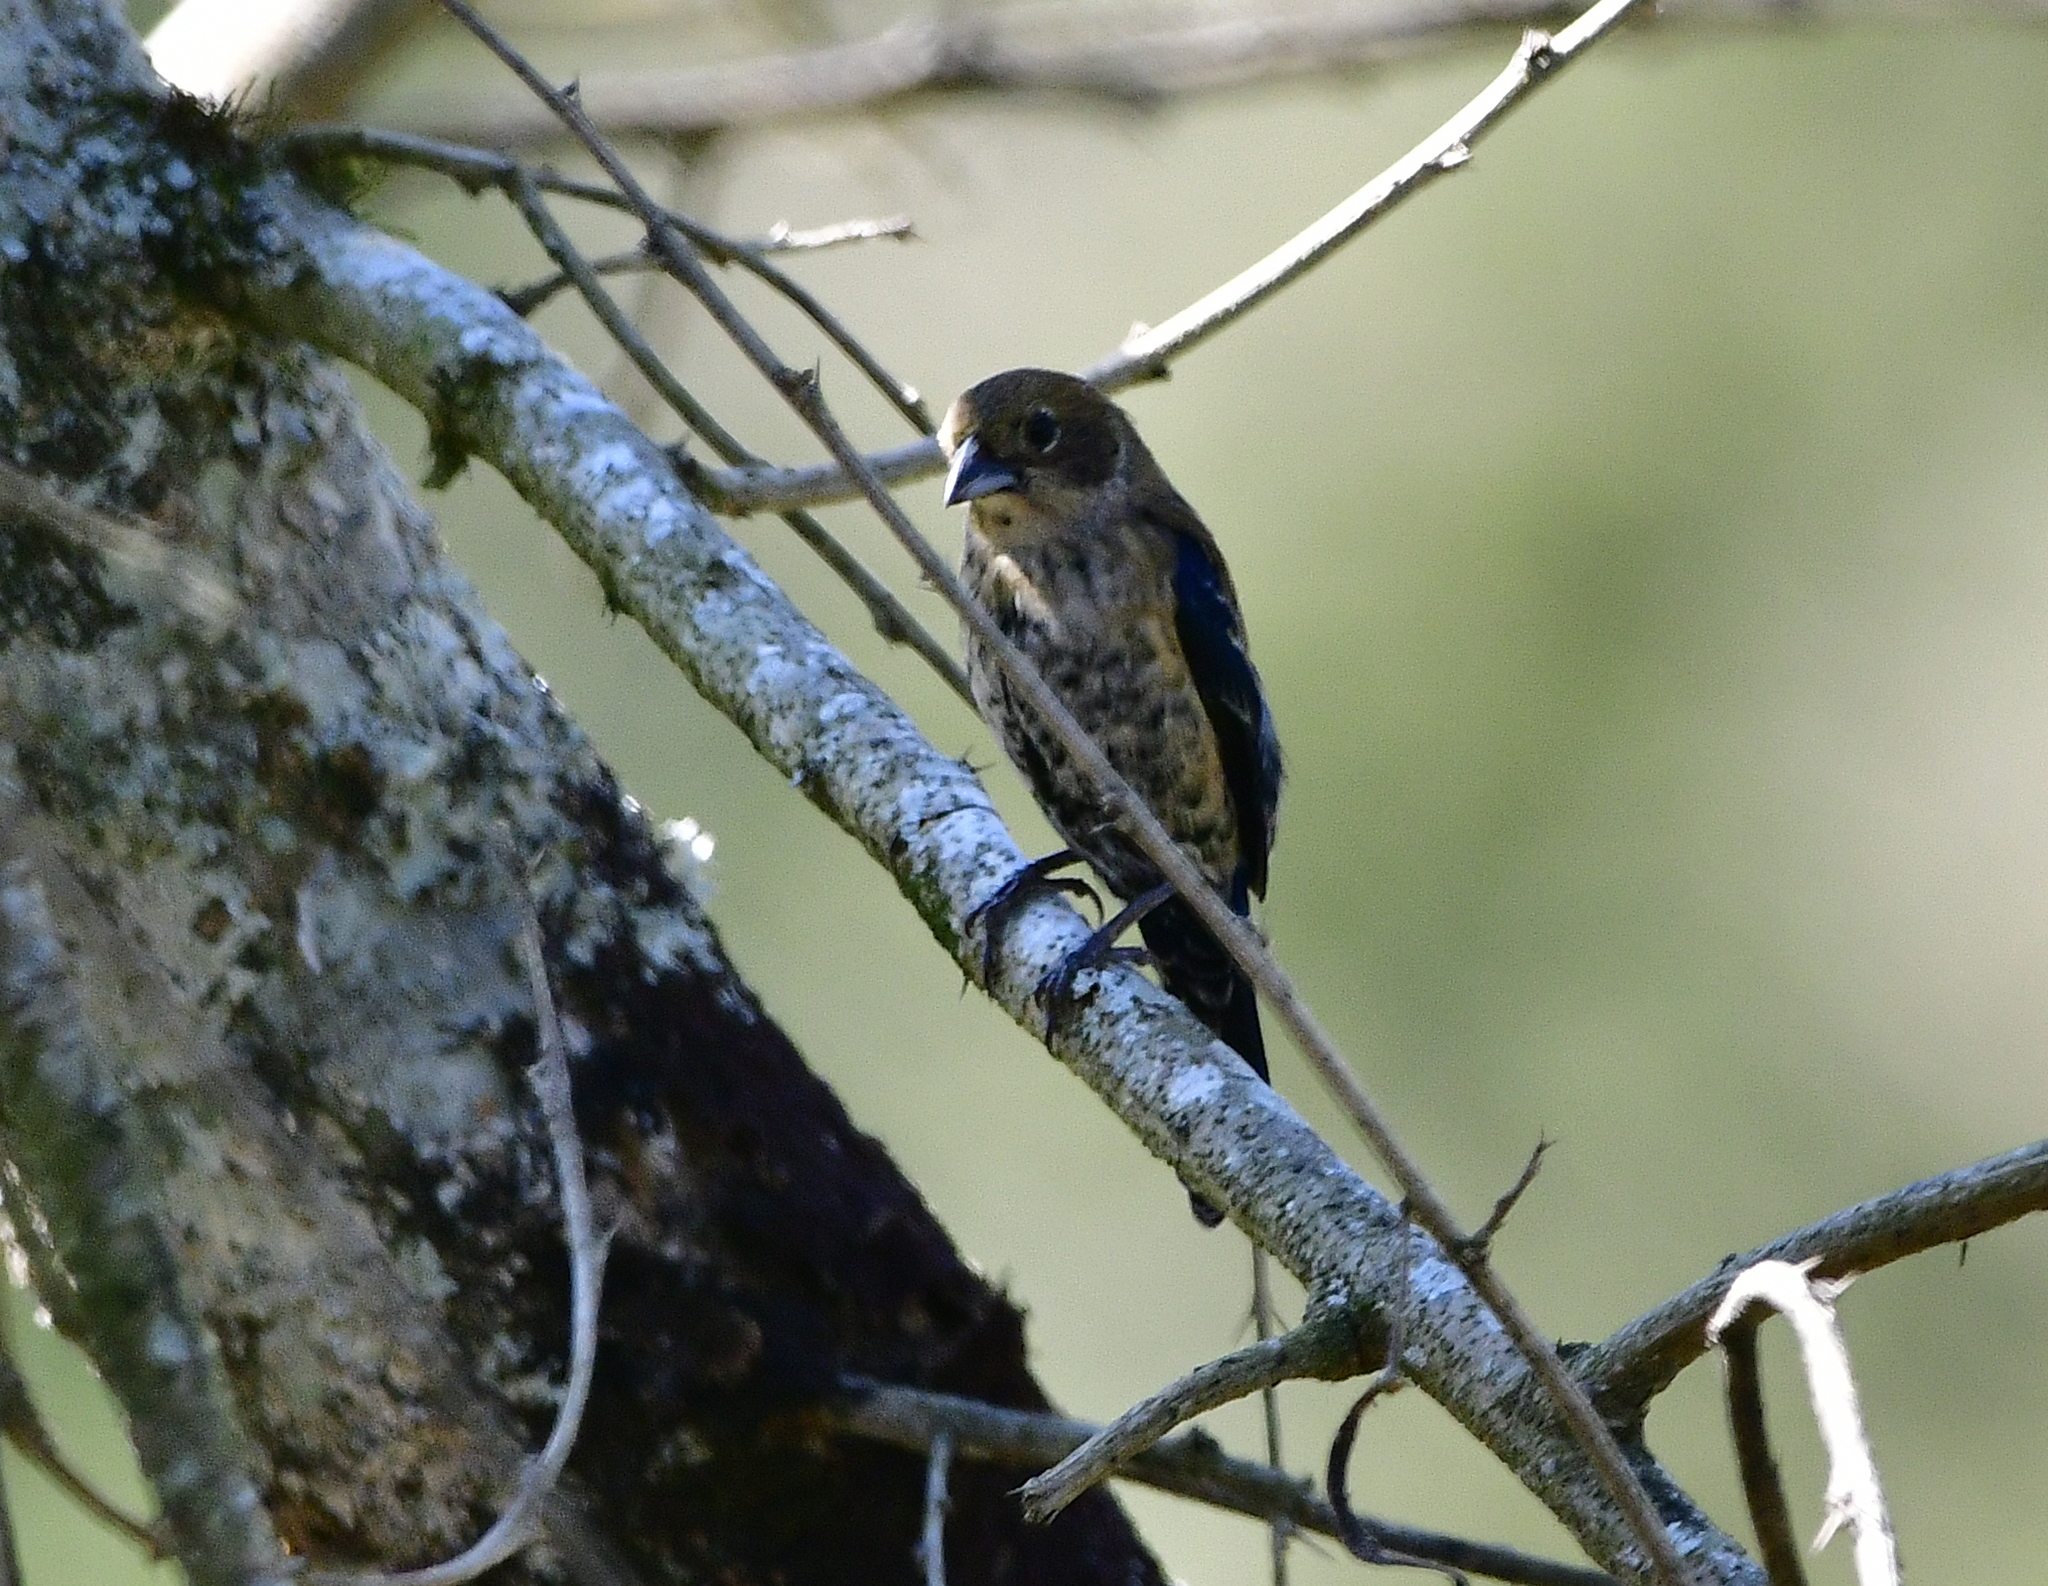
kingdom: Animalia
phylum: Chordata
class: Aves
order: Passeriformes
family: Thraupidae
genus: Volatinia
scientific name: Volatinia jacarina
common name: Blue-black grassquit
